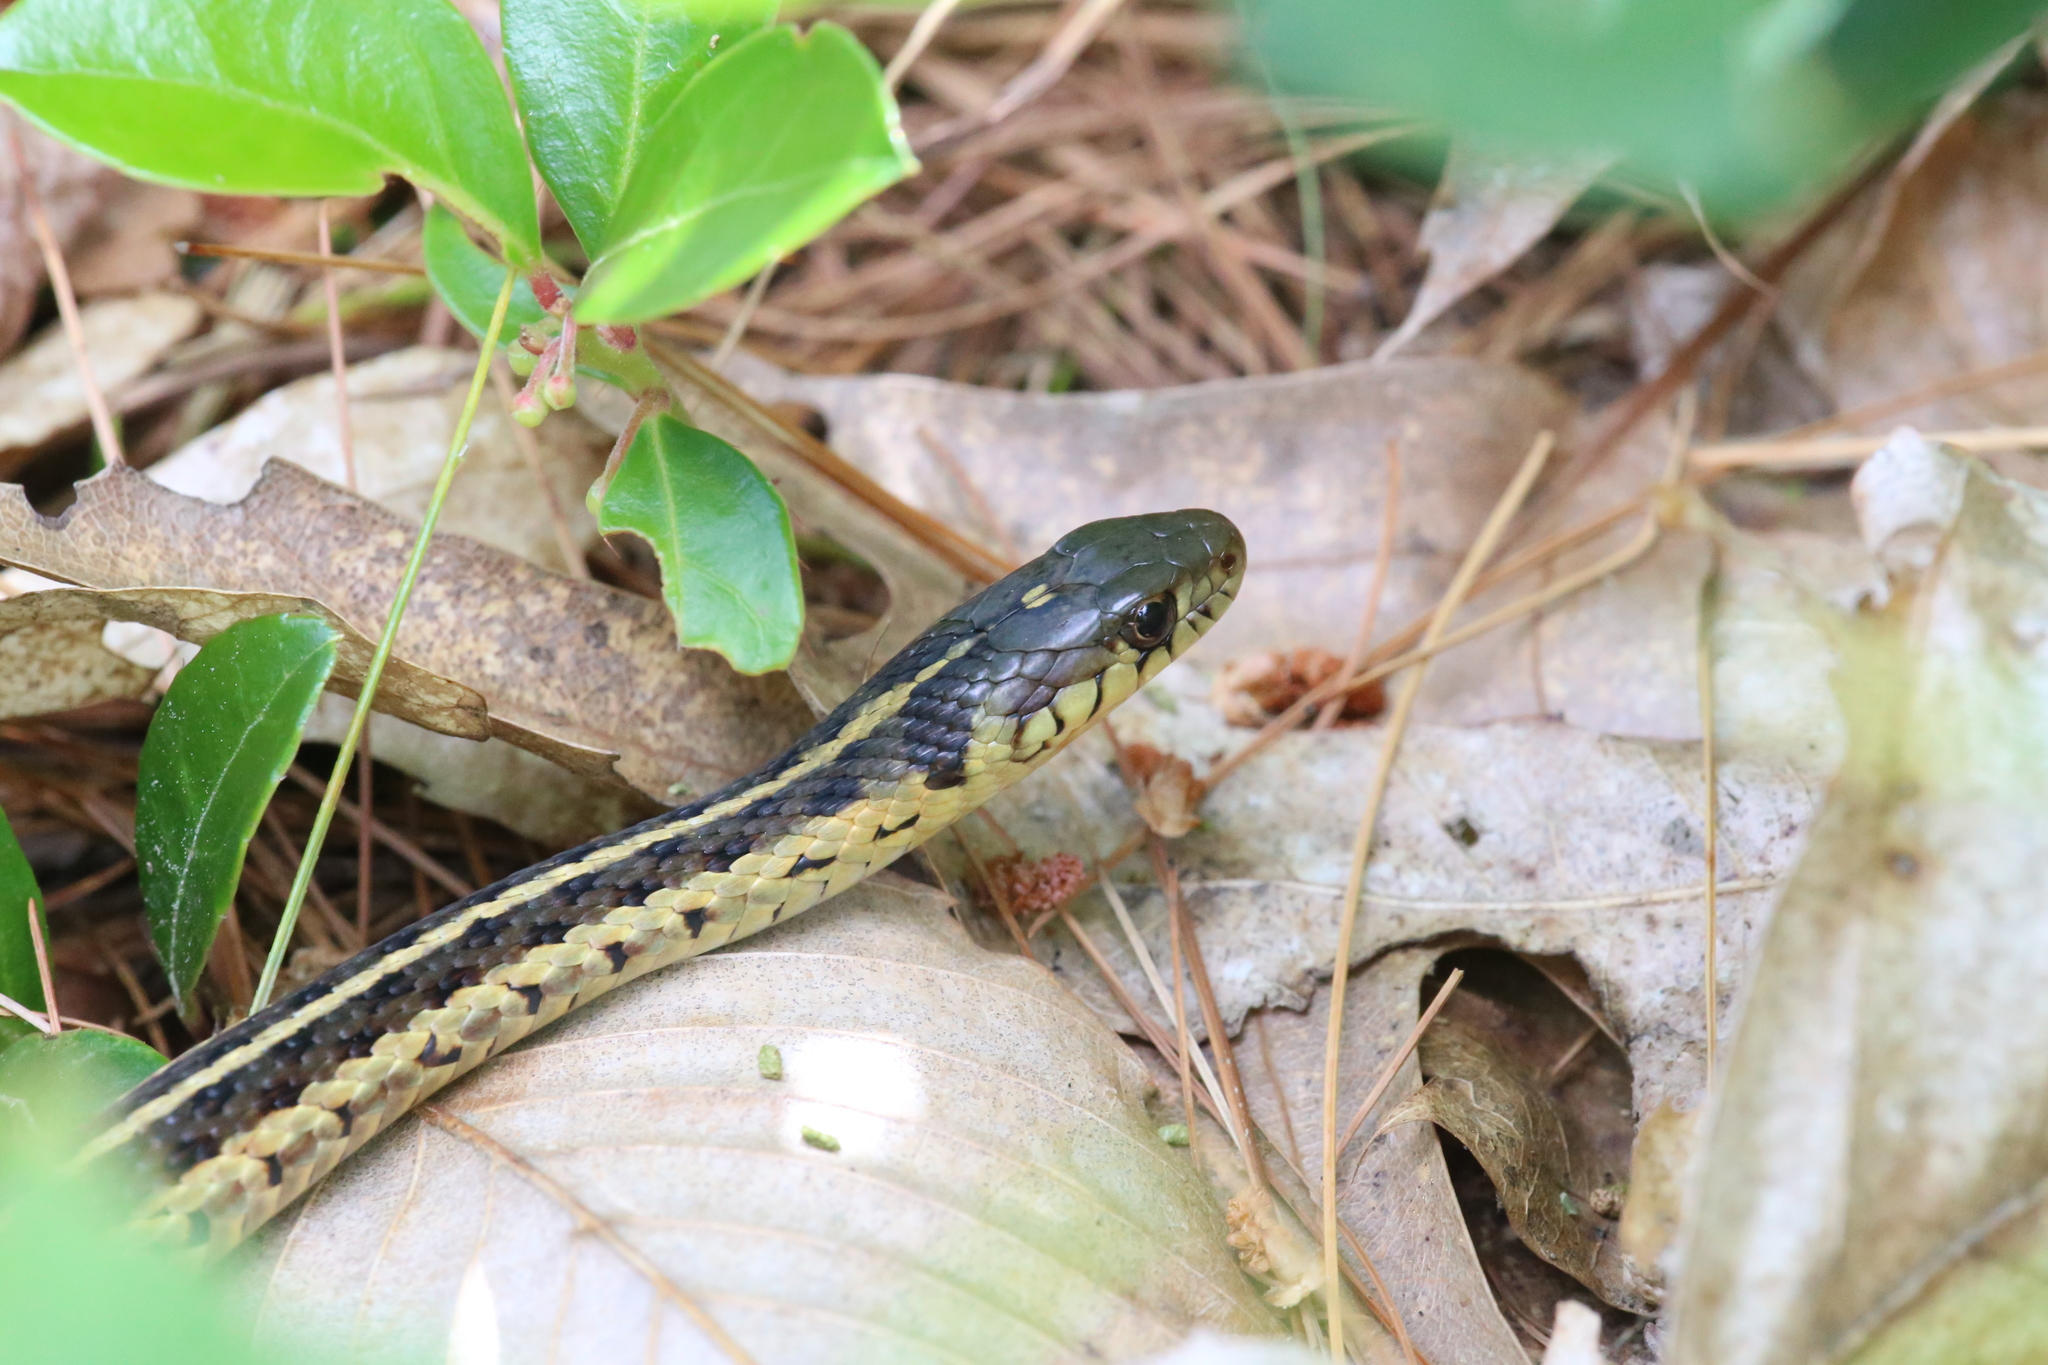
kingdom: Animalia
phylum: Chordata
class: Squamata
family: Colubridae
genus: Thamnophis
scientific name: Thamnophis sirtalis
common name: Common garter snake
